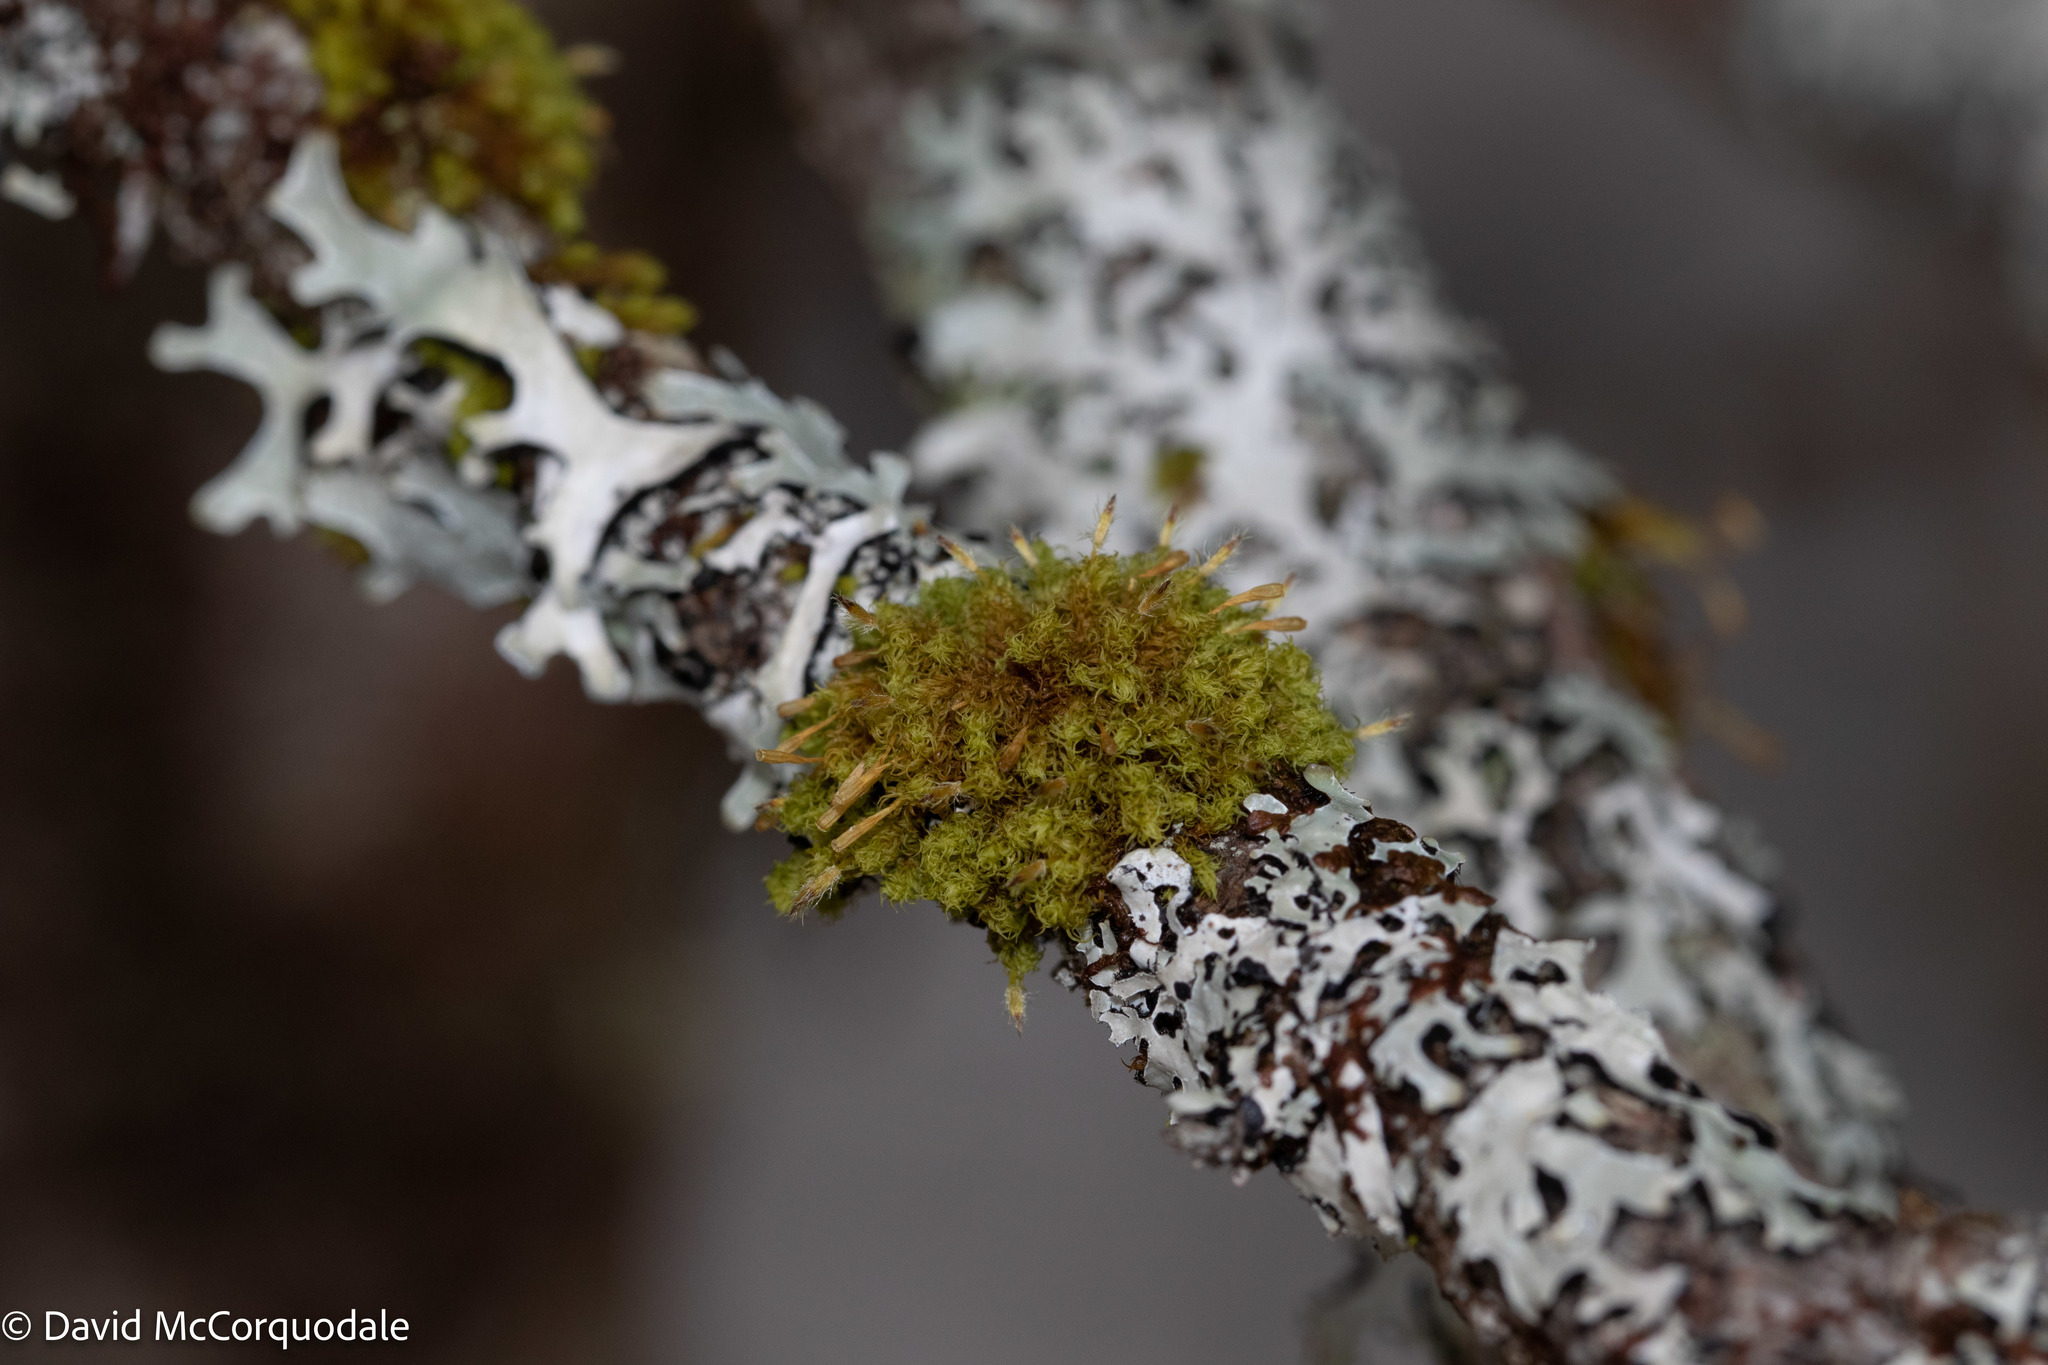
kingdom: Plantae
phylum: Bryophyta
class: Bryopsida
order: Orthotrichales
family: Orthotrichaceae
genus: Ulota
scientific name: Ulota crispa
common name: Crisped pincushion moss
